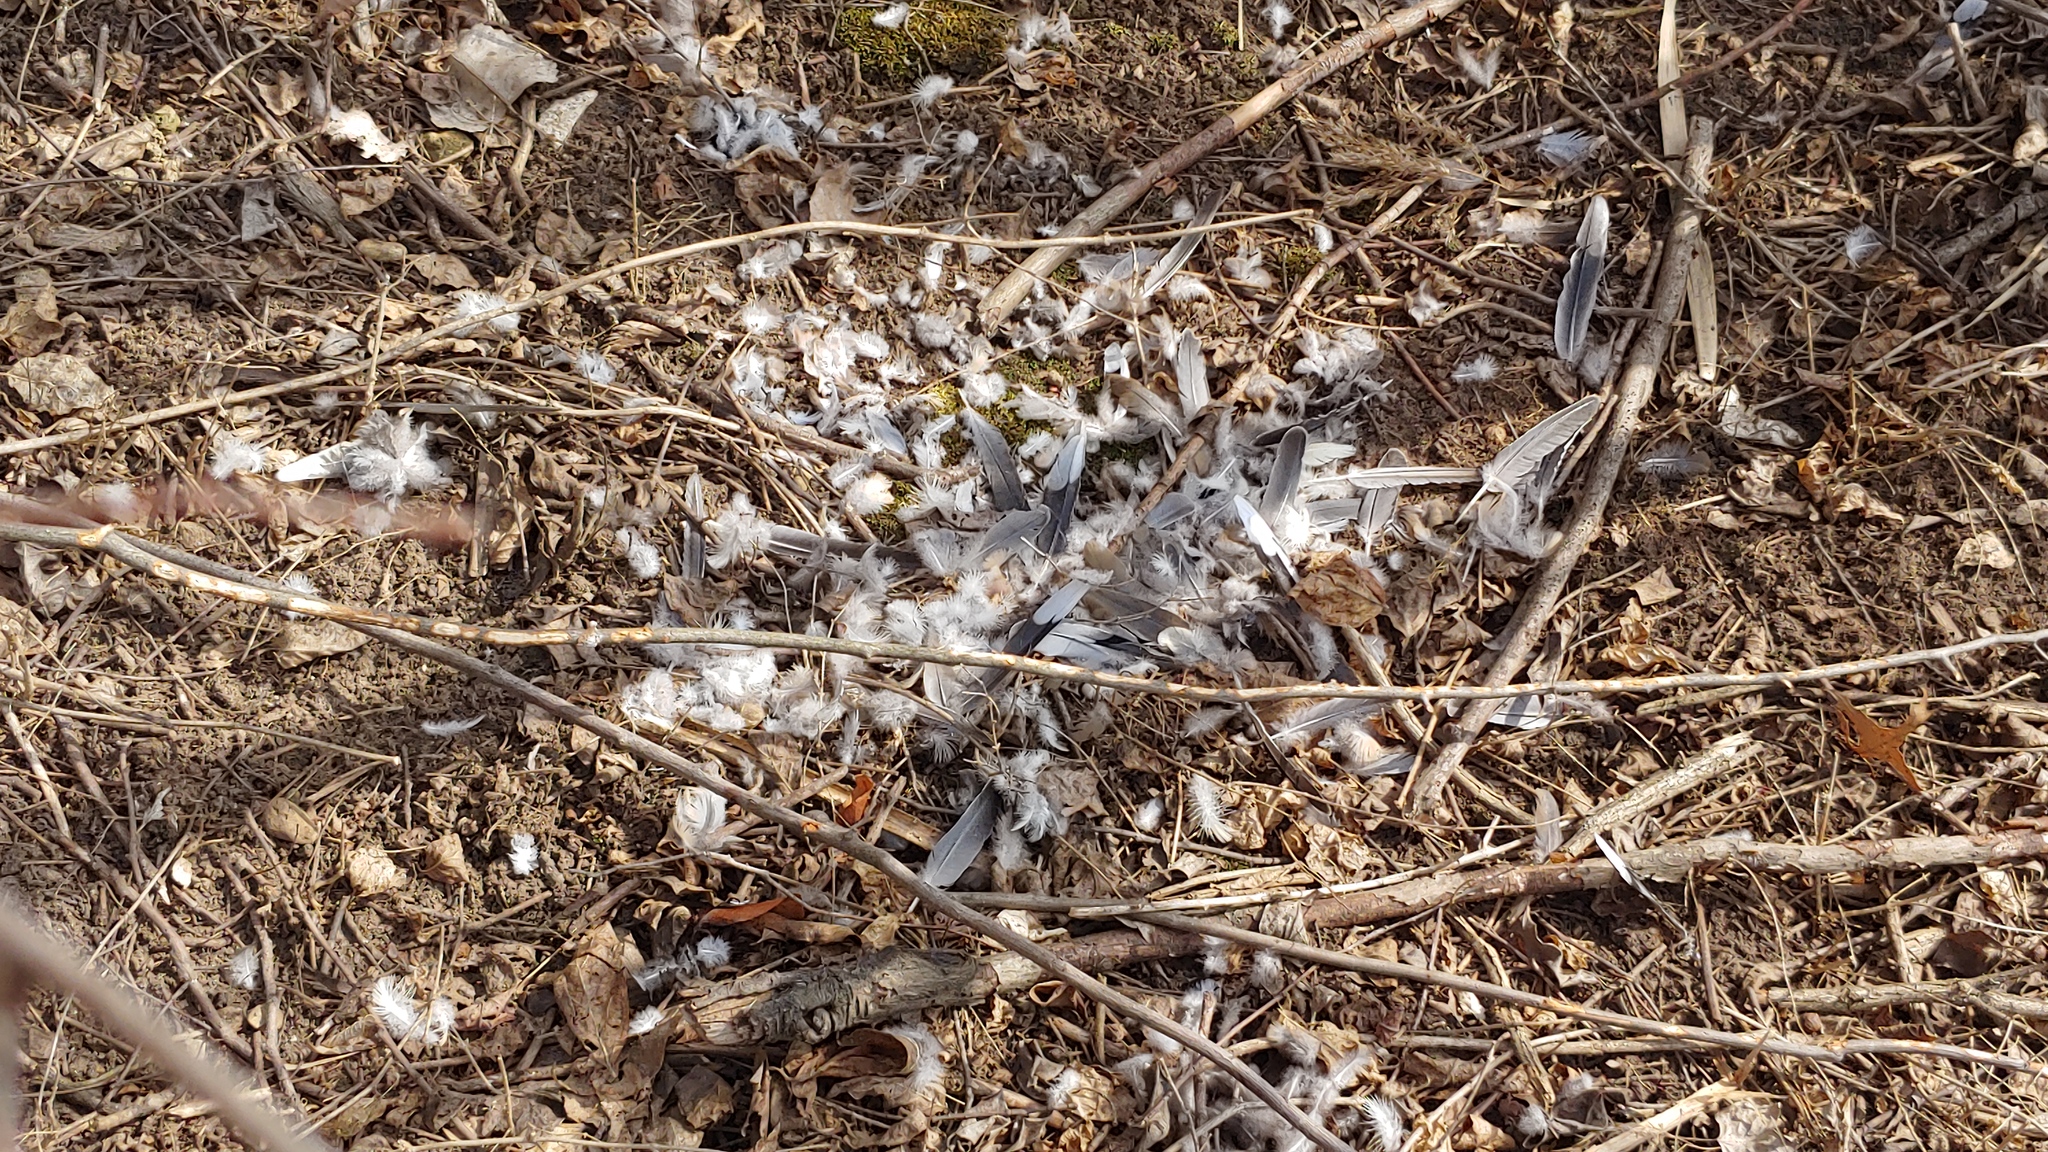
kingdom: Animalia
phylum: Chordata
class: Aves
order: Columbiformes
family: Columbidae
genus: Zenaida
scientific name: Zenaida macroura
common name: Mourning dove
